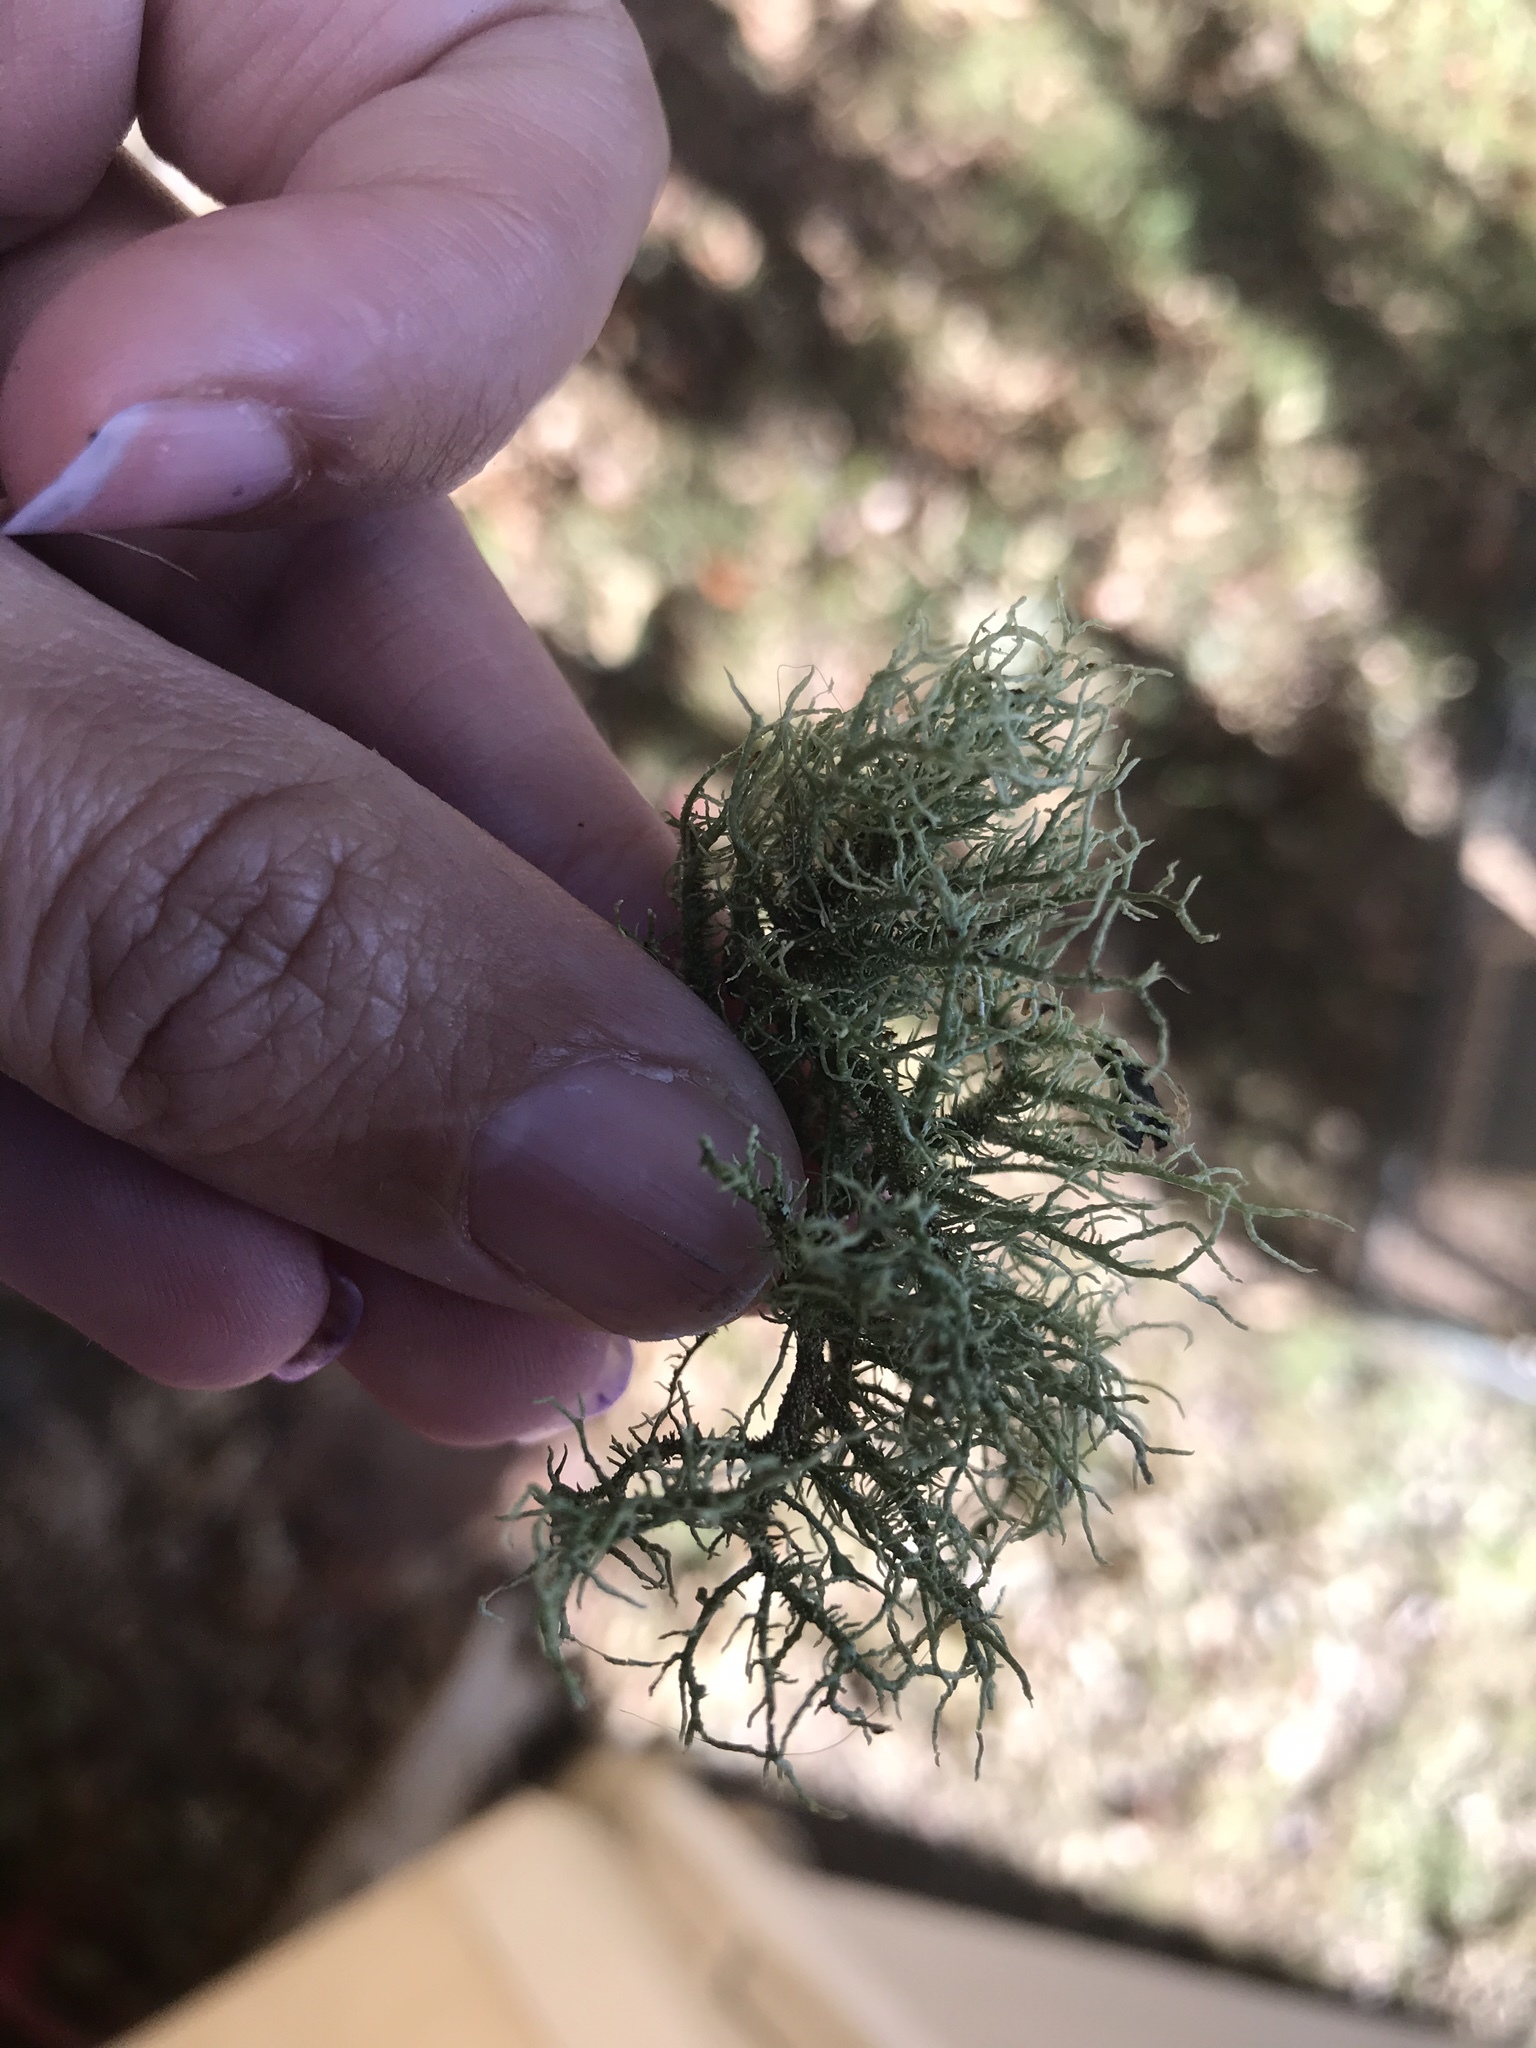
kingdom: Fungi
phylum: Ascomycota
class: Lecanoromycetes
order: Lecanorales
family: Parmeliaceae
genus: Usnea
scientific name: Usnea hirta
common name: Bristly beard lichen
